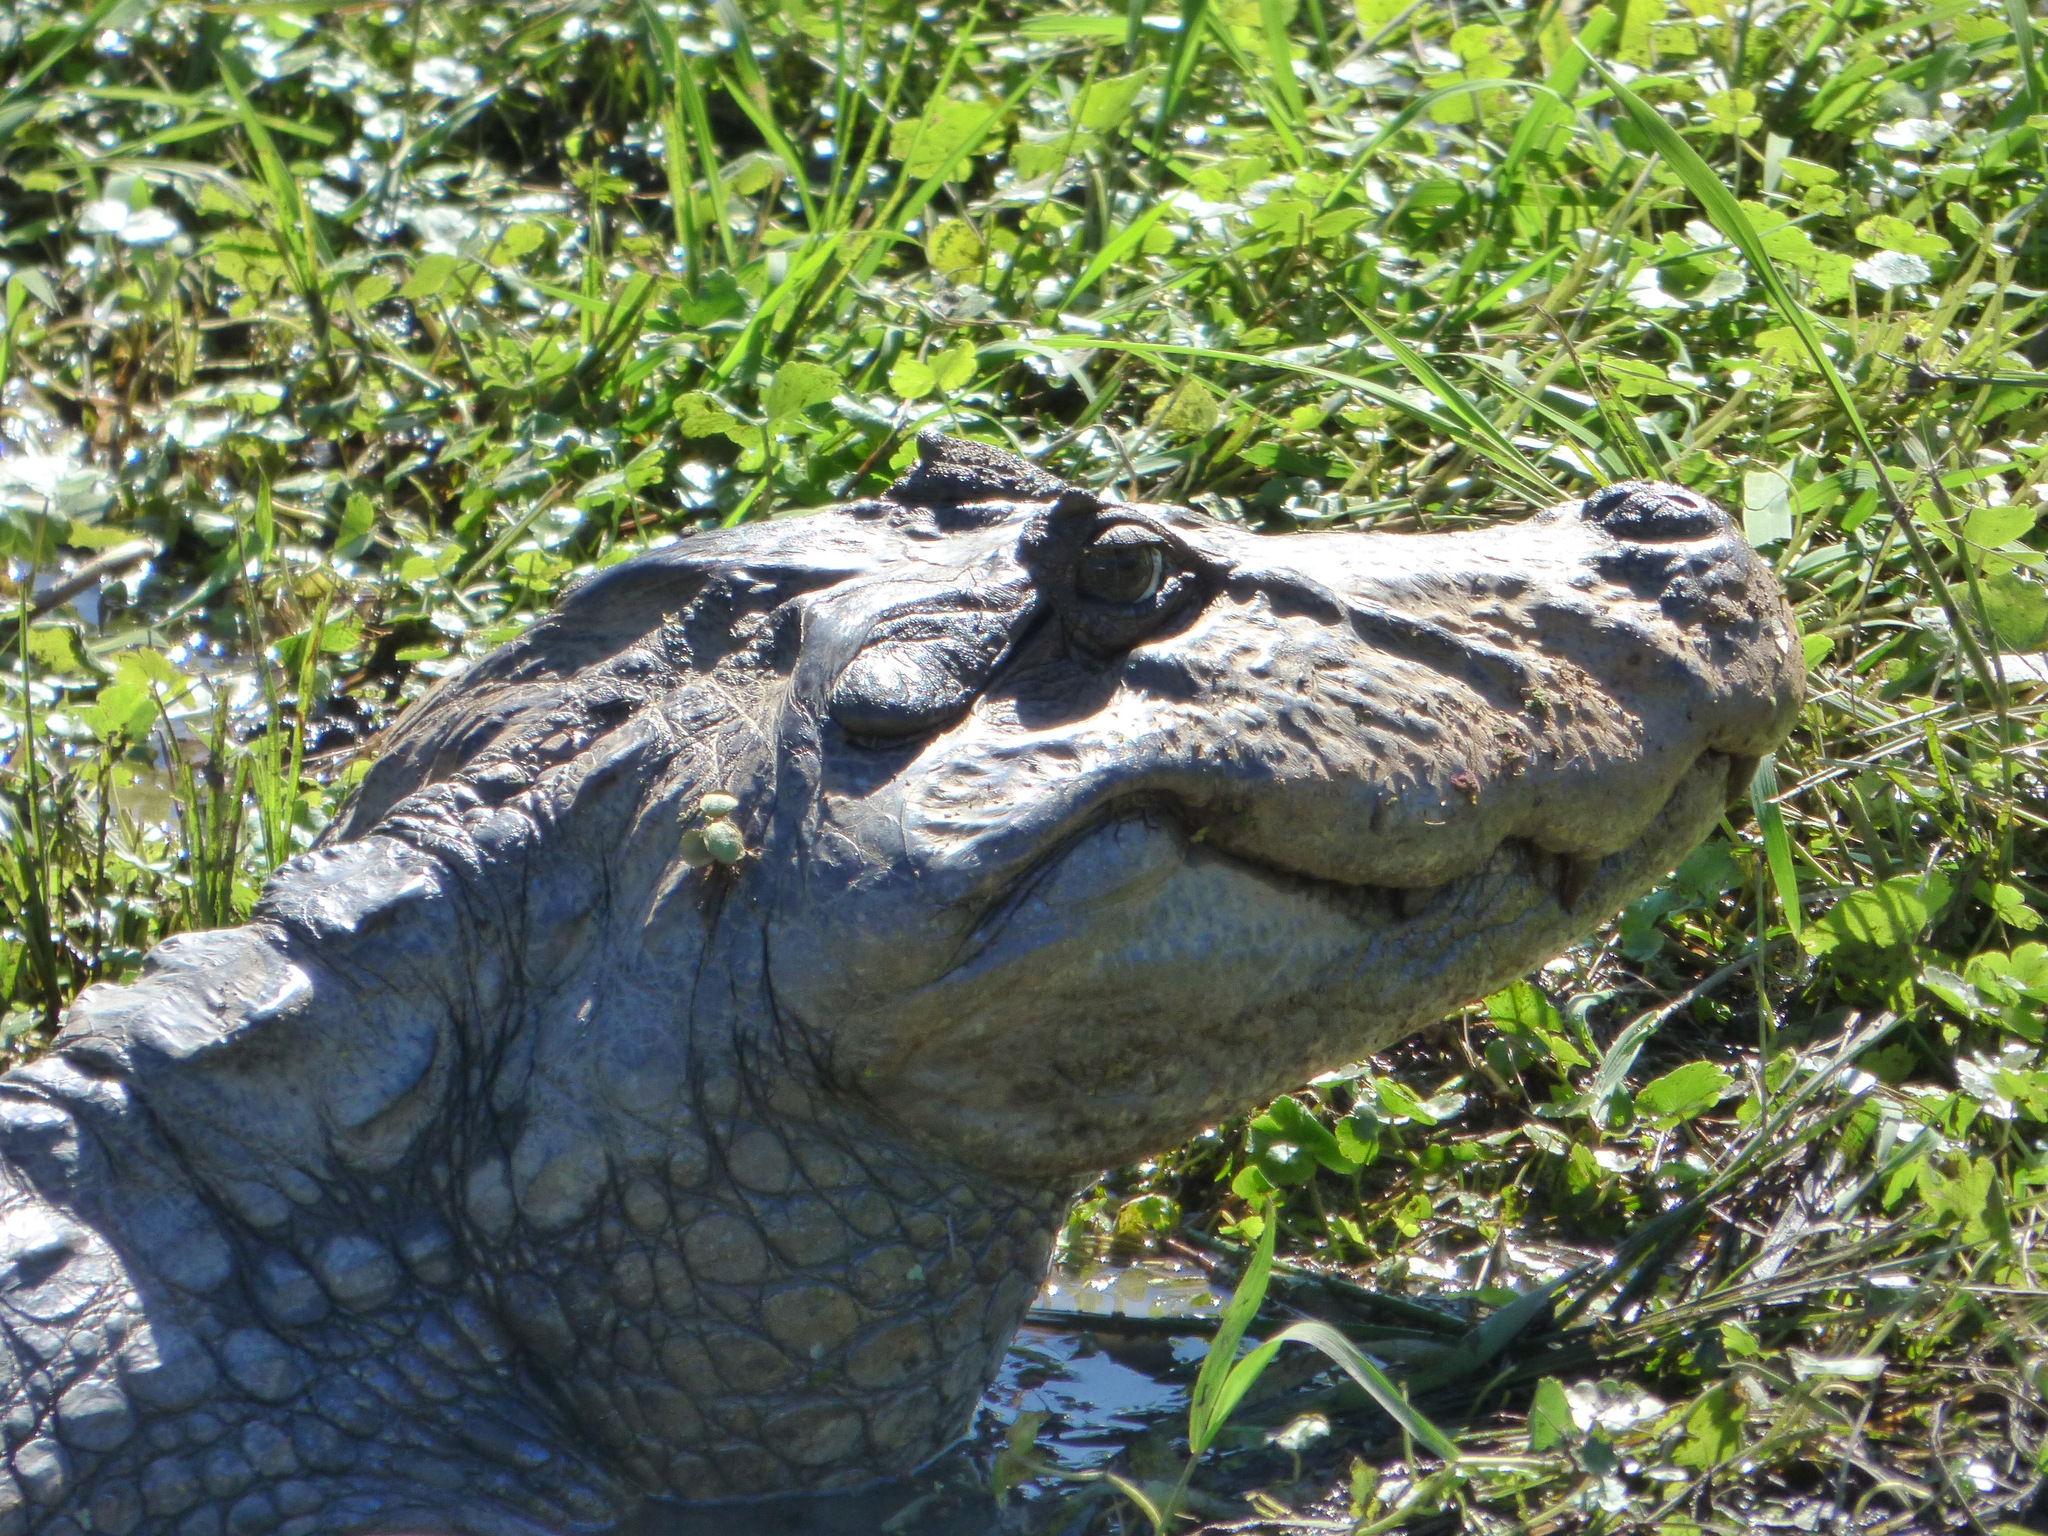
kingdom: Animalia
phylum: Chordata
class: Crocodylia
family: Alligatoridae
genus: Caiman
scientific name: Caiman latirostris
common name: Broad-snouted caiman
